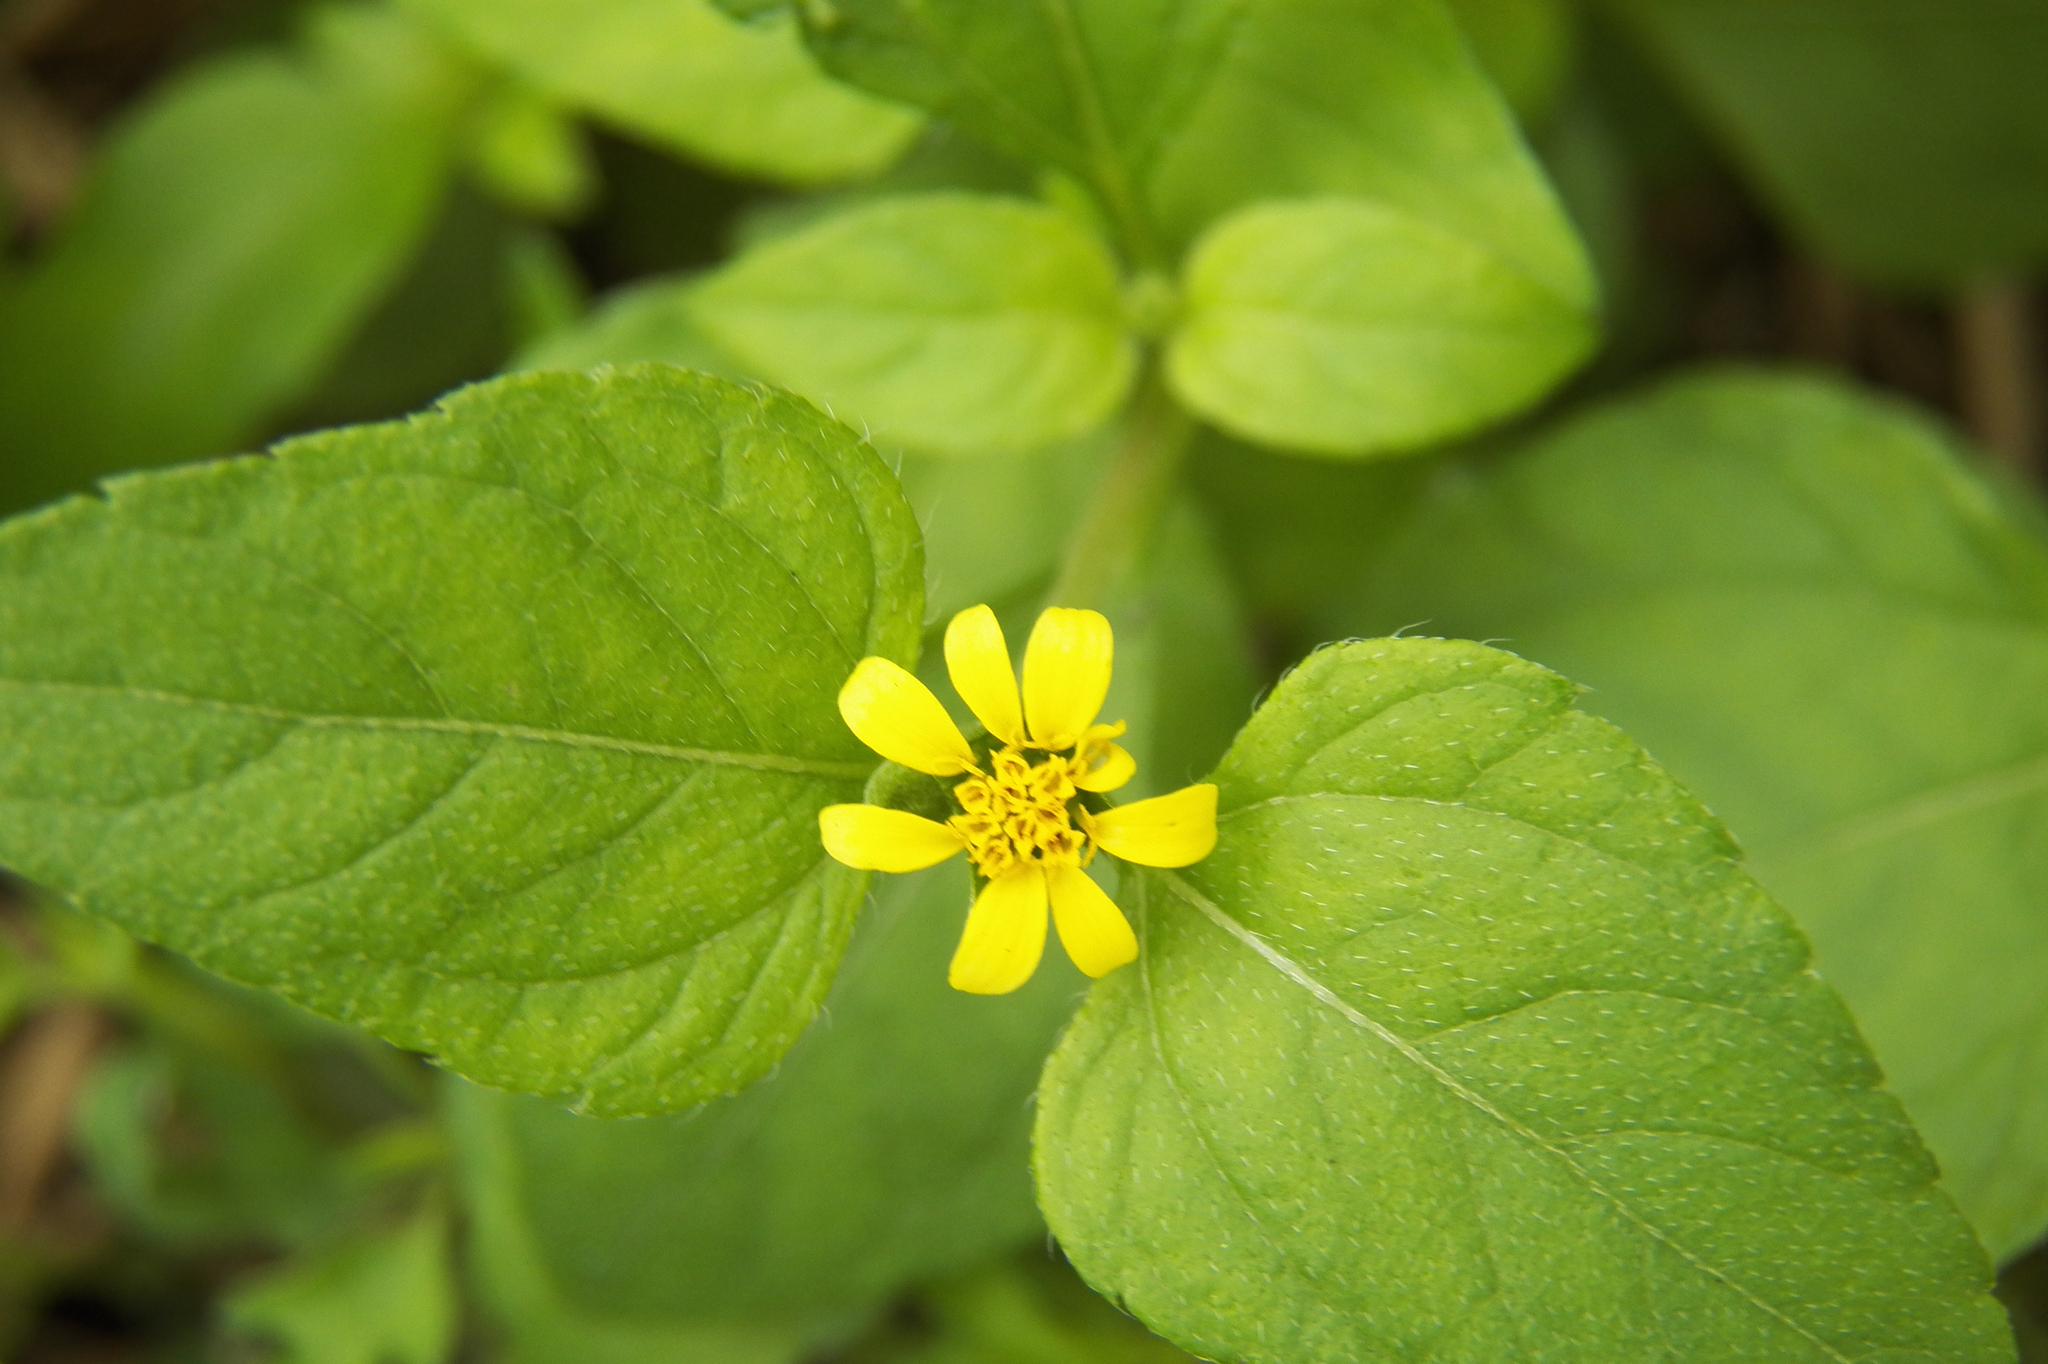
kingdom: Plantae
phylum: Tracheophyta
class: Magnoliopsida
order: Asterales
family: Asteraceae
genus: Calyptocarpus
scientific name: Calyptocarpus vialis
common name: Straggler daisy
